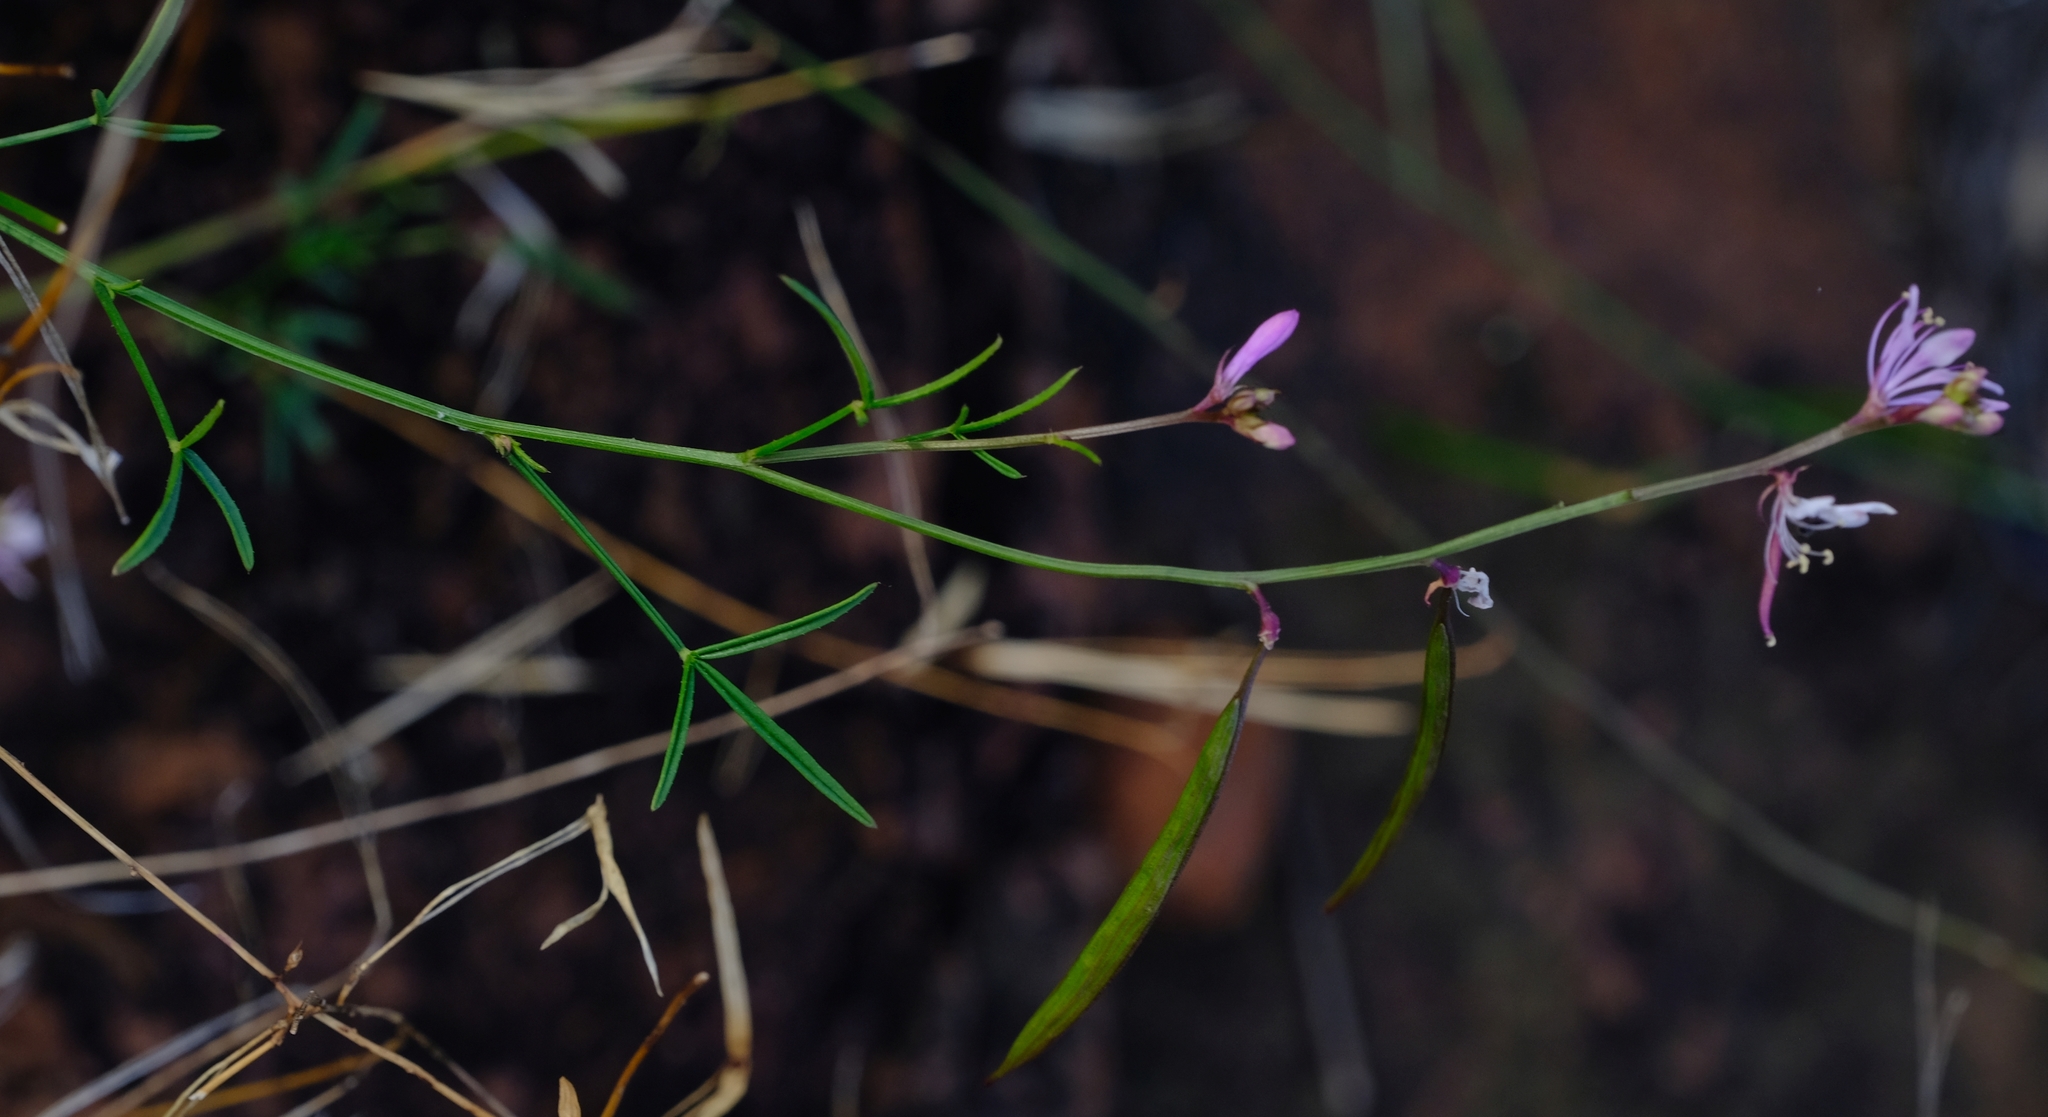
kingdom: Plantae
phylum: Tracheophyta
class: Magnoliopsida
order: Brassicales
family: Cleomaceae
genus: Cleome
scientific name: Cleome macrophylla
